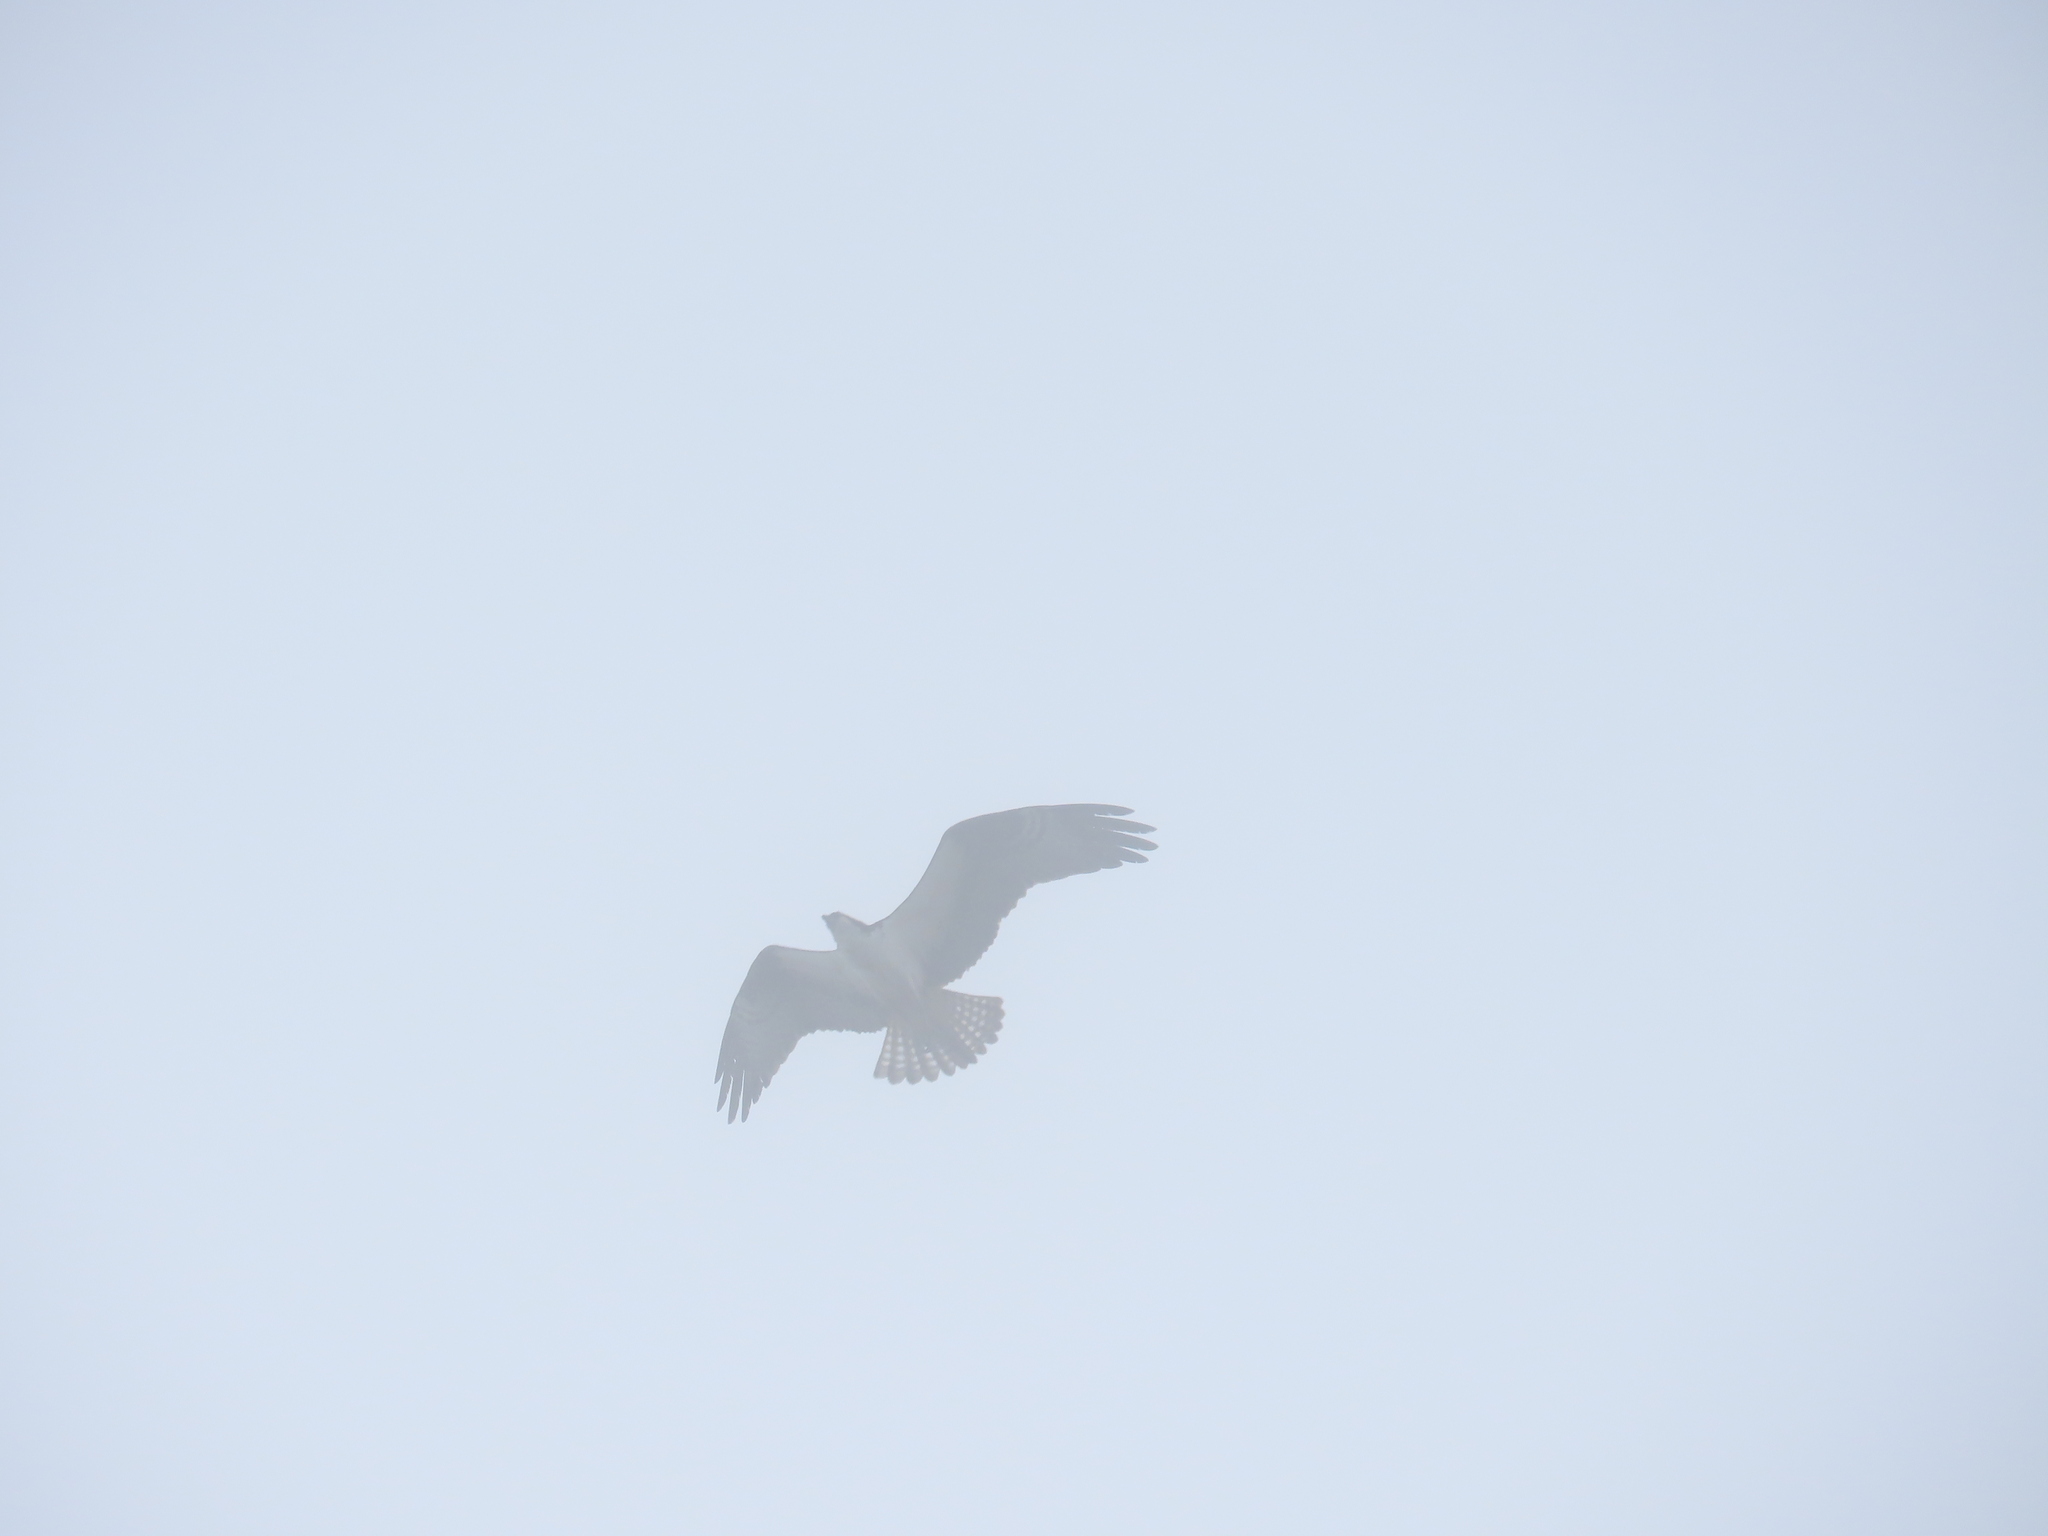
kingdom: Animalia
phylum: Chordata
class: Aves
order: Accipitriformes
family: Pandionidae
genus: Pandion
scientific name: Pandion haliaetus
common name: Osprey
